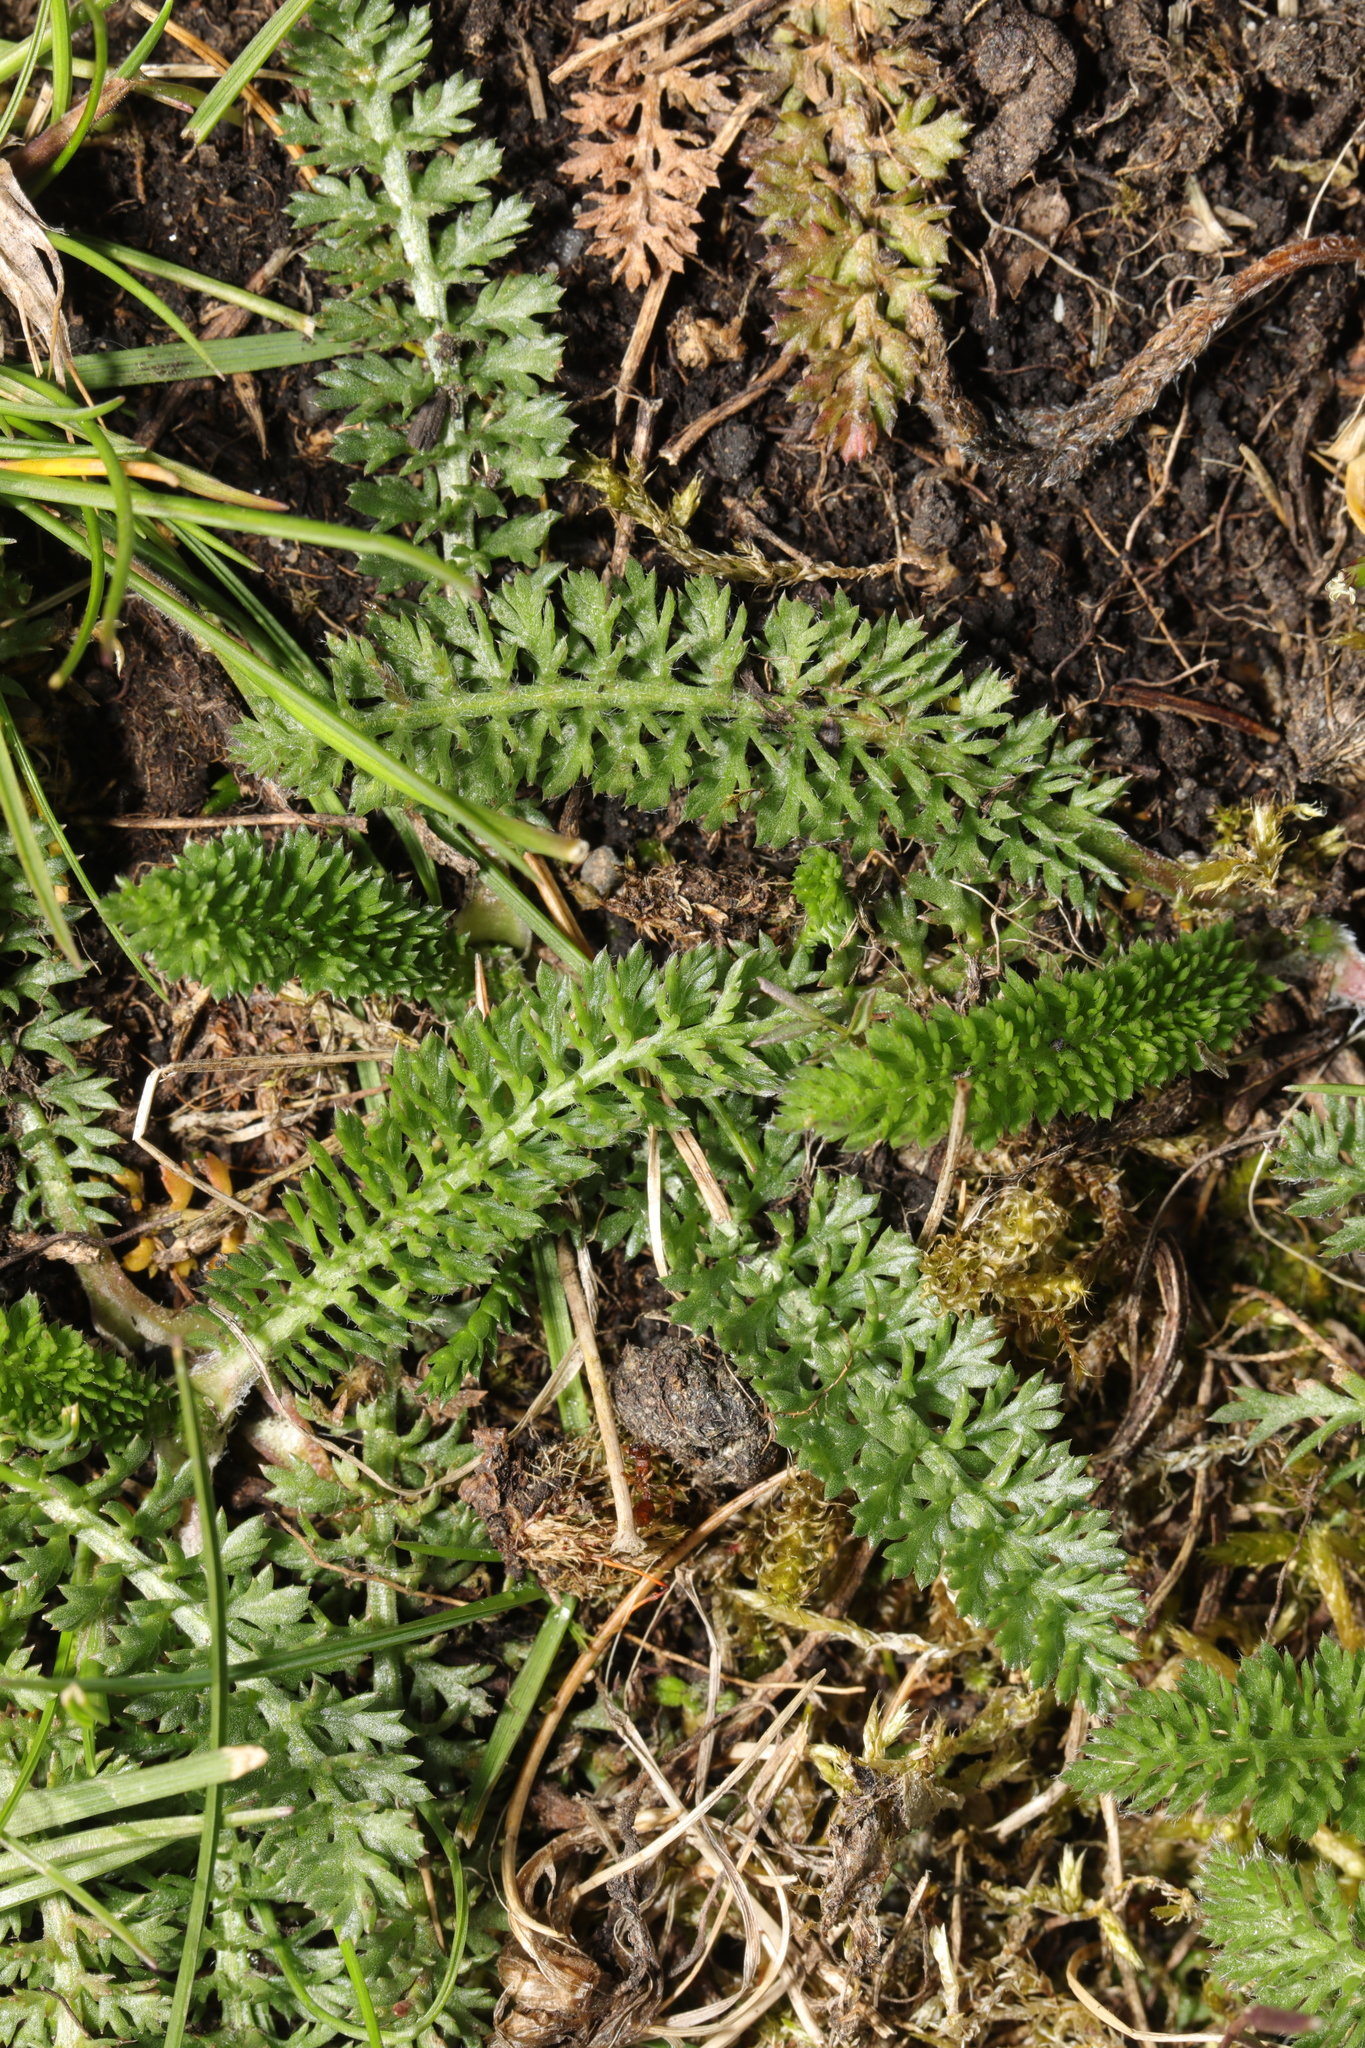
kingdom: Plantae
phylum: Tracheophyta
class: Magnoliopsida
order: Asterales
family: Asteraceae
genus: Achillea
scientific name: Achillea millefolium
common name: Yarrow
